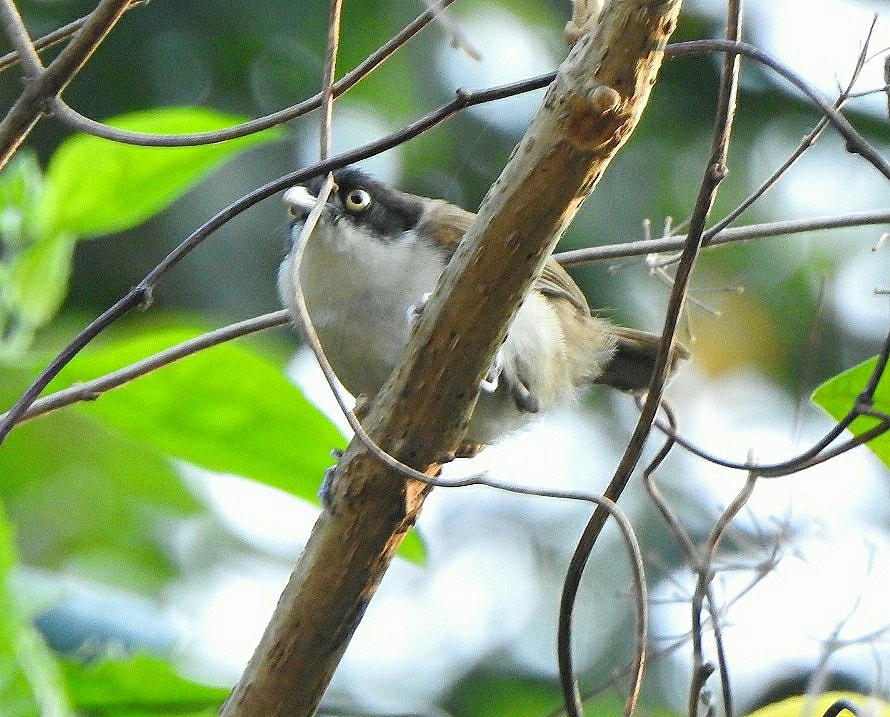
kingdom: Animalia
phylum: Chordata
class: Aves
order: Passeriformes
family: Timaliidae
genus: Rhopocichla
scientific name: Rhopocichla atriceps
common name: Dark-fronted babbler
